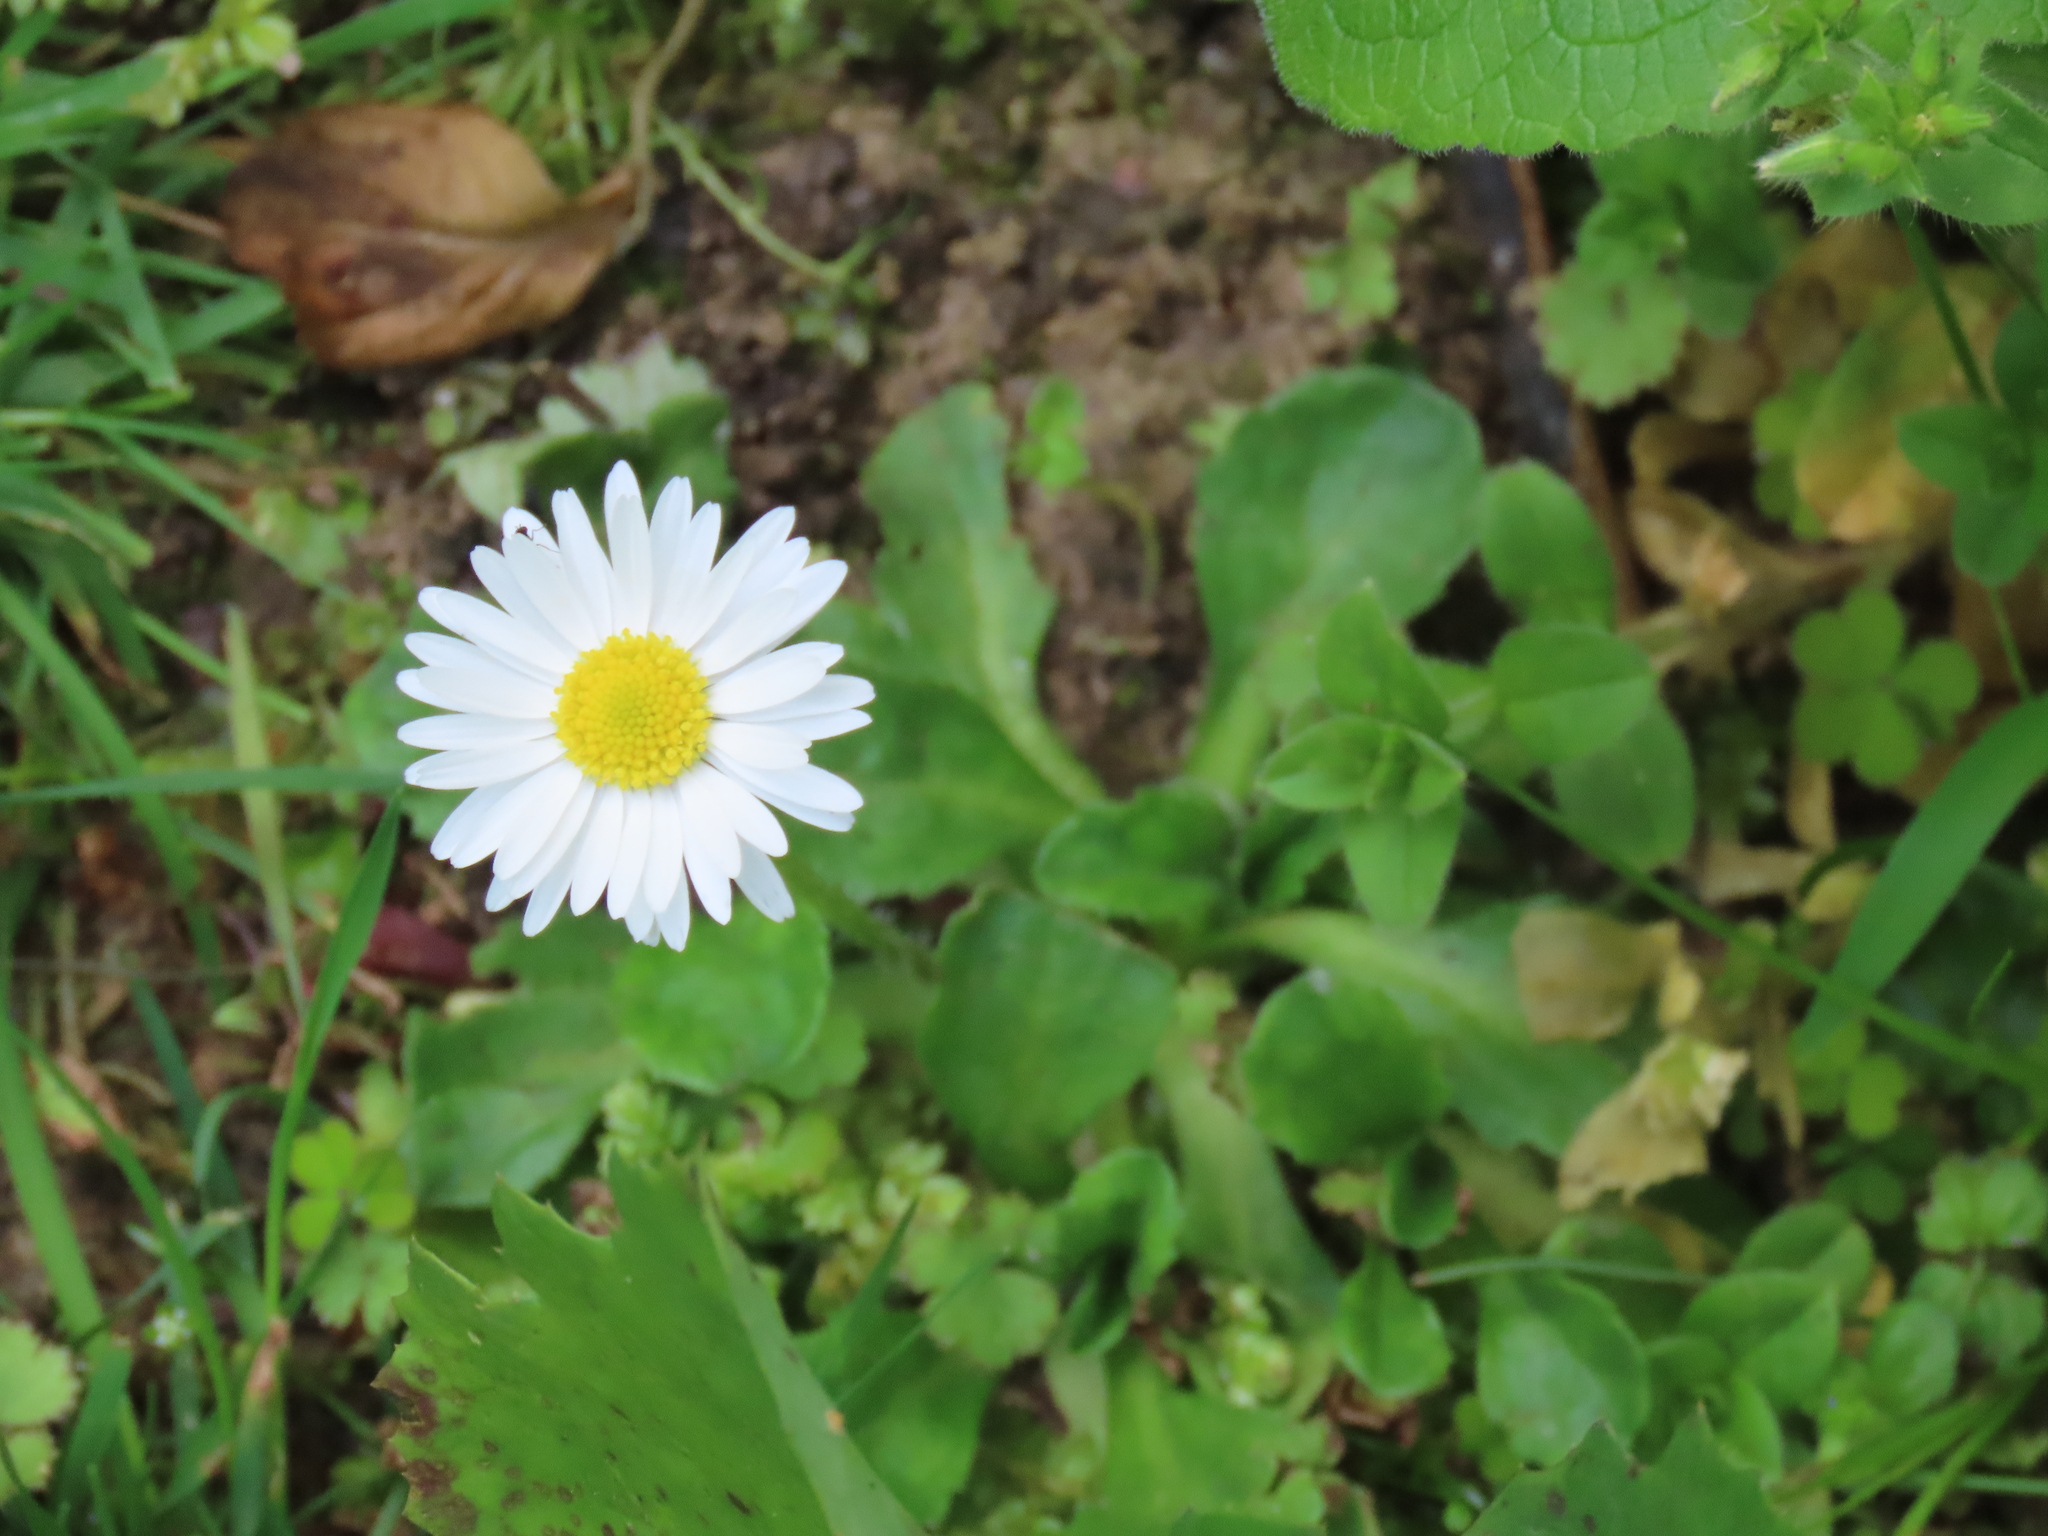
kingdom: Plantae
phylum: Tracheophyta
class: Magnoliopsida
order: Asterales
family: Asteraceae
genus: Bellis
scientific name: Bellis perennis
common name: Lawndaisy
